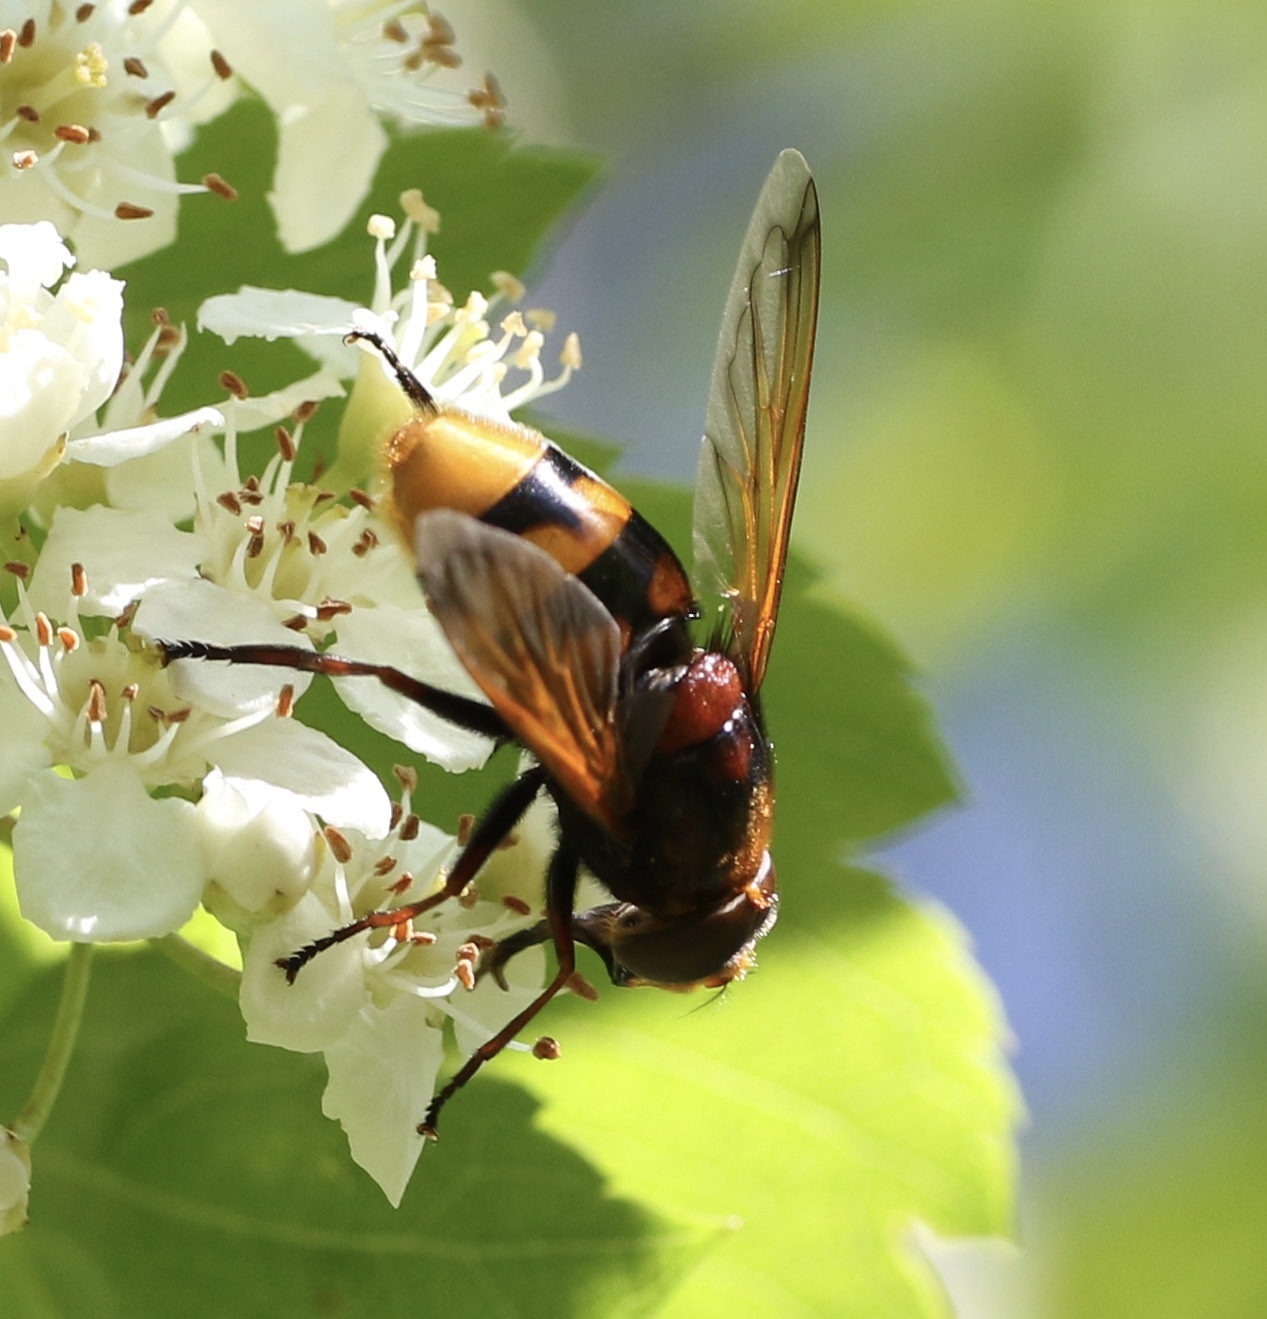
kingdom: Animalia
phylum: Arthropoda
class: Insecta
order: Diptera
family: Syrphidae
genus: Volucella
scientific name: Volucella zonaria
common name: Hornet hoverfly
